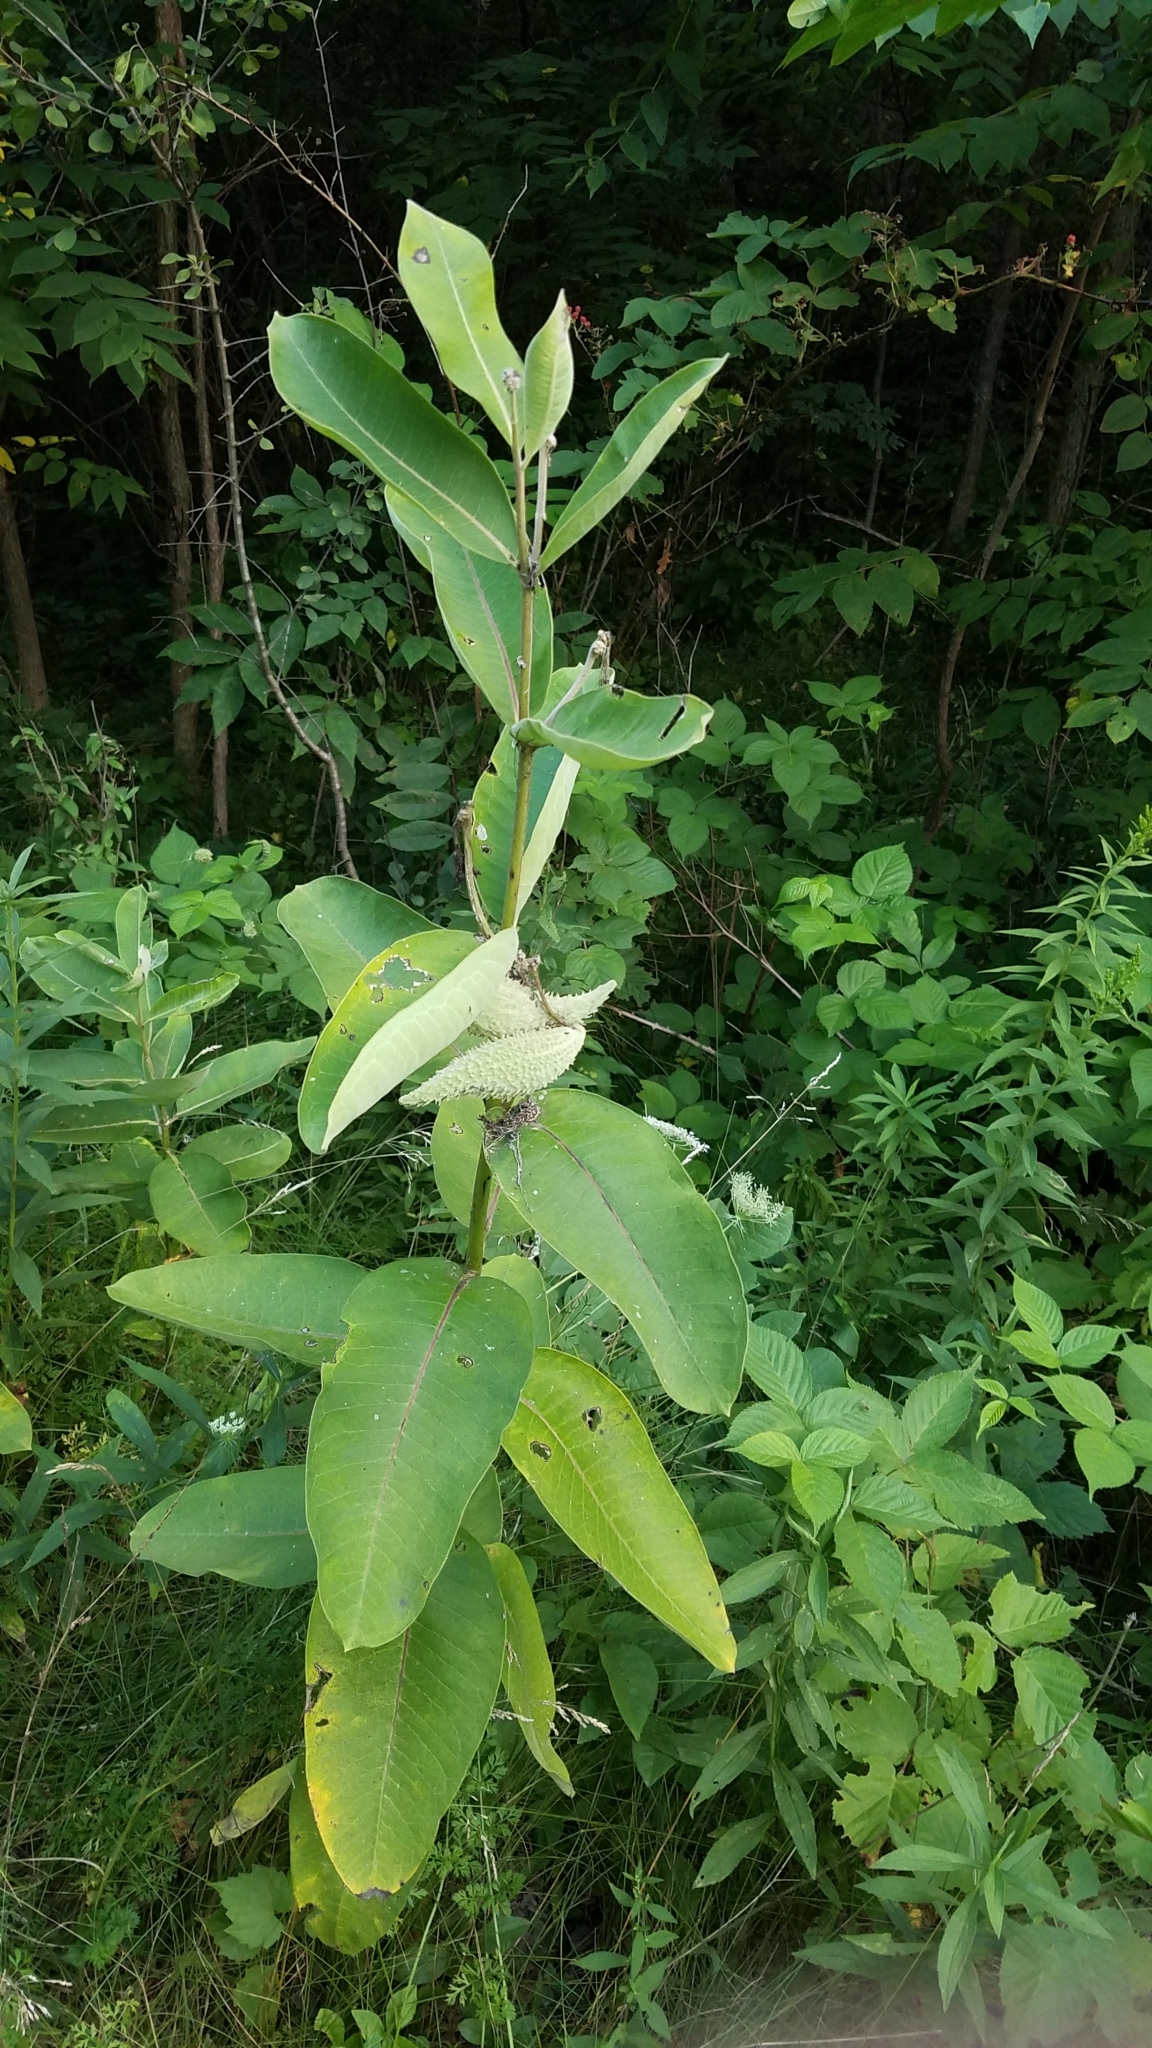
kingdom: Plantae
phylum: Tracheophyta
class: Magnoliopsida
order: Gentianales
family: Apocynaceae
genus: Asclepias
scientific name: Asclepias syriaca
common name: Common milkweed
